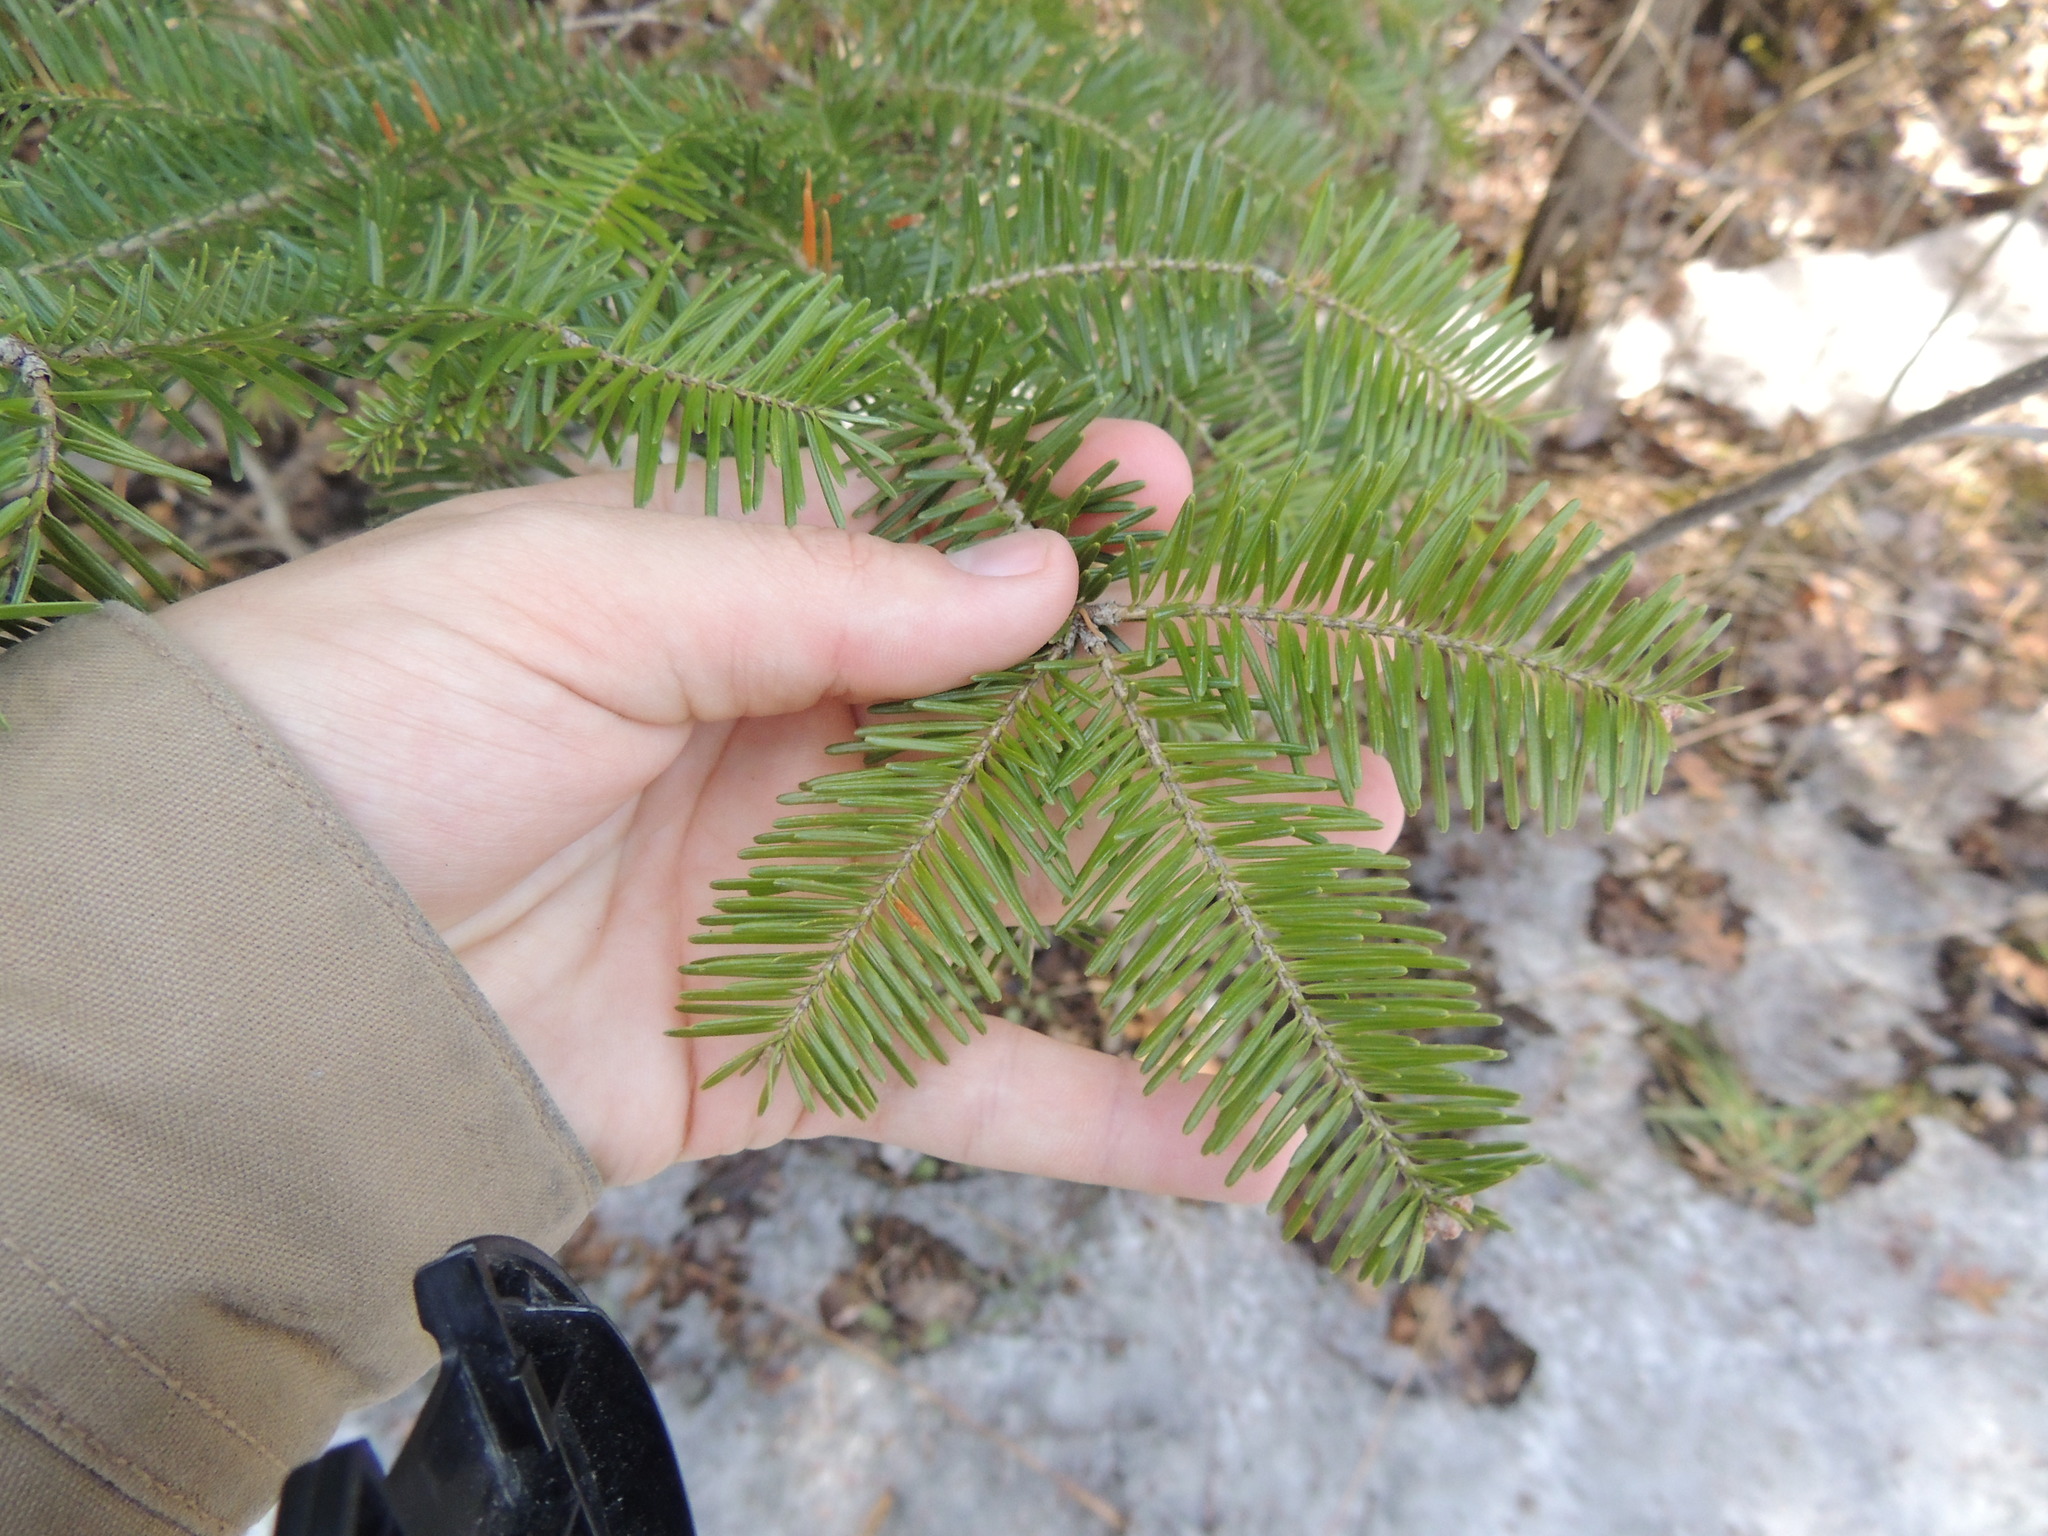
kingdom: Plantae
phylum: Tracheophyta
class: Pinopsida
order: Pinales
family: Pinaceae
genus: Abies
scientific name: Abies balsamea
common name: Balsam fir
